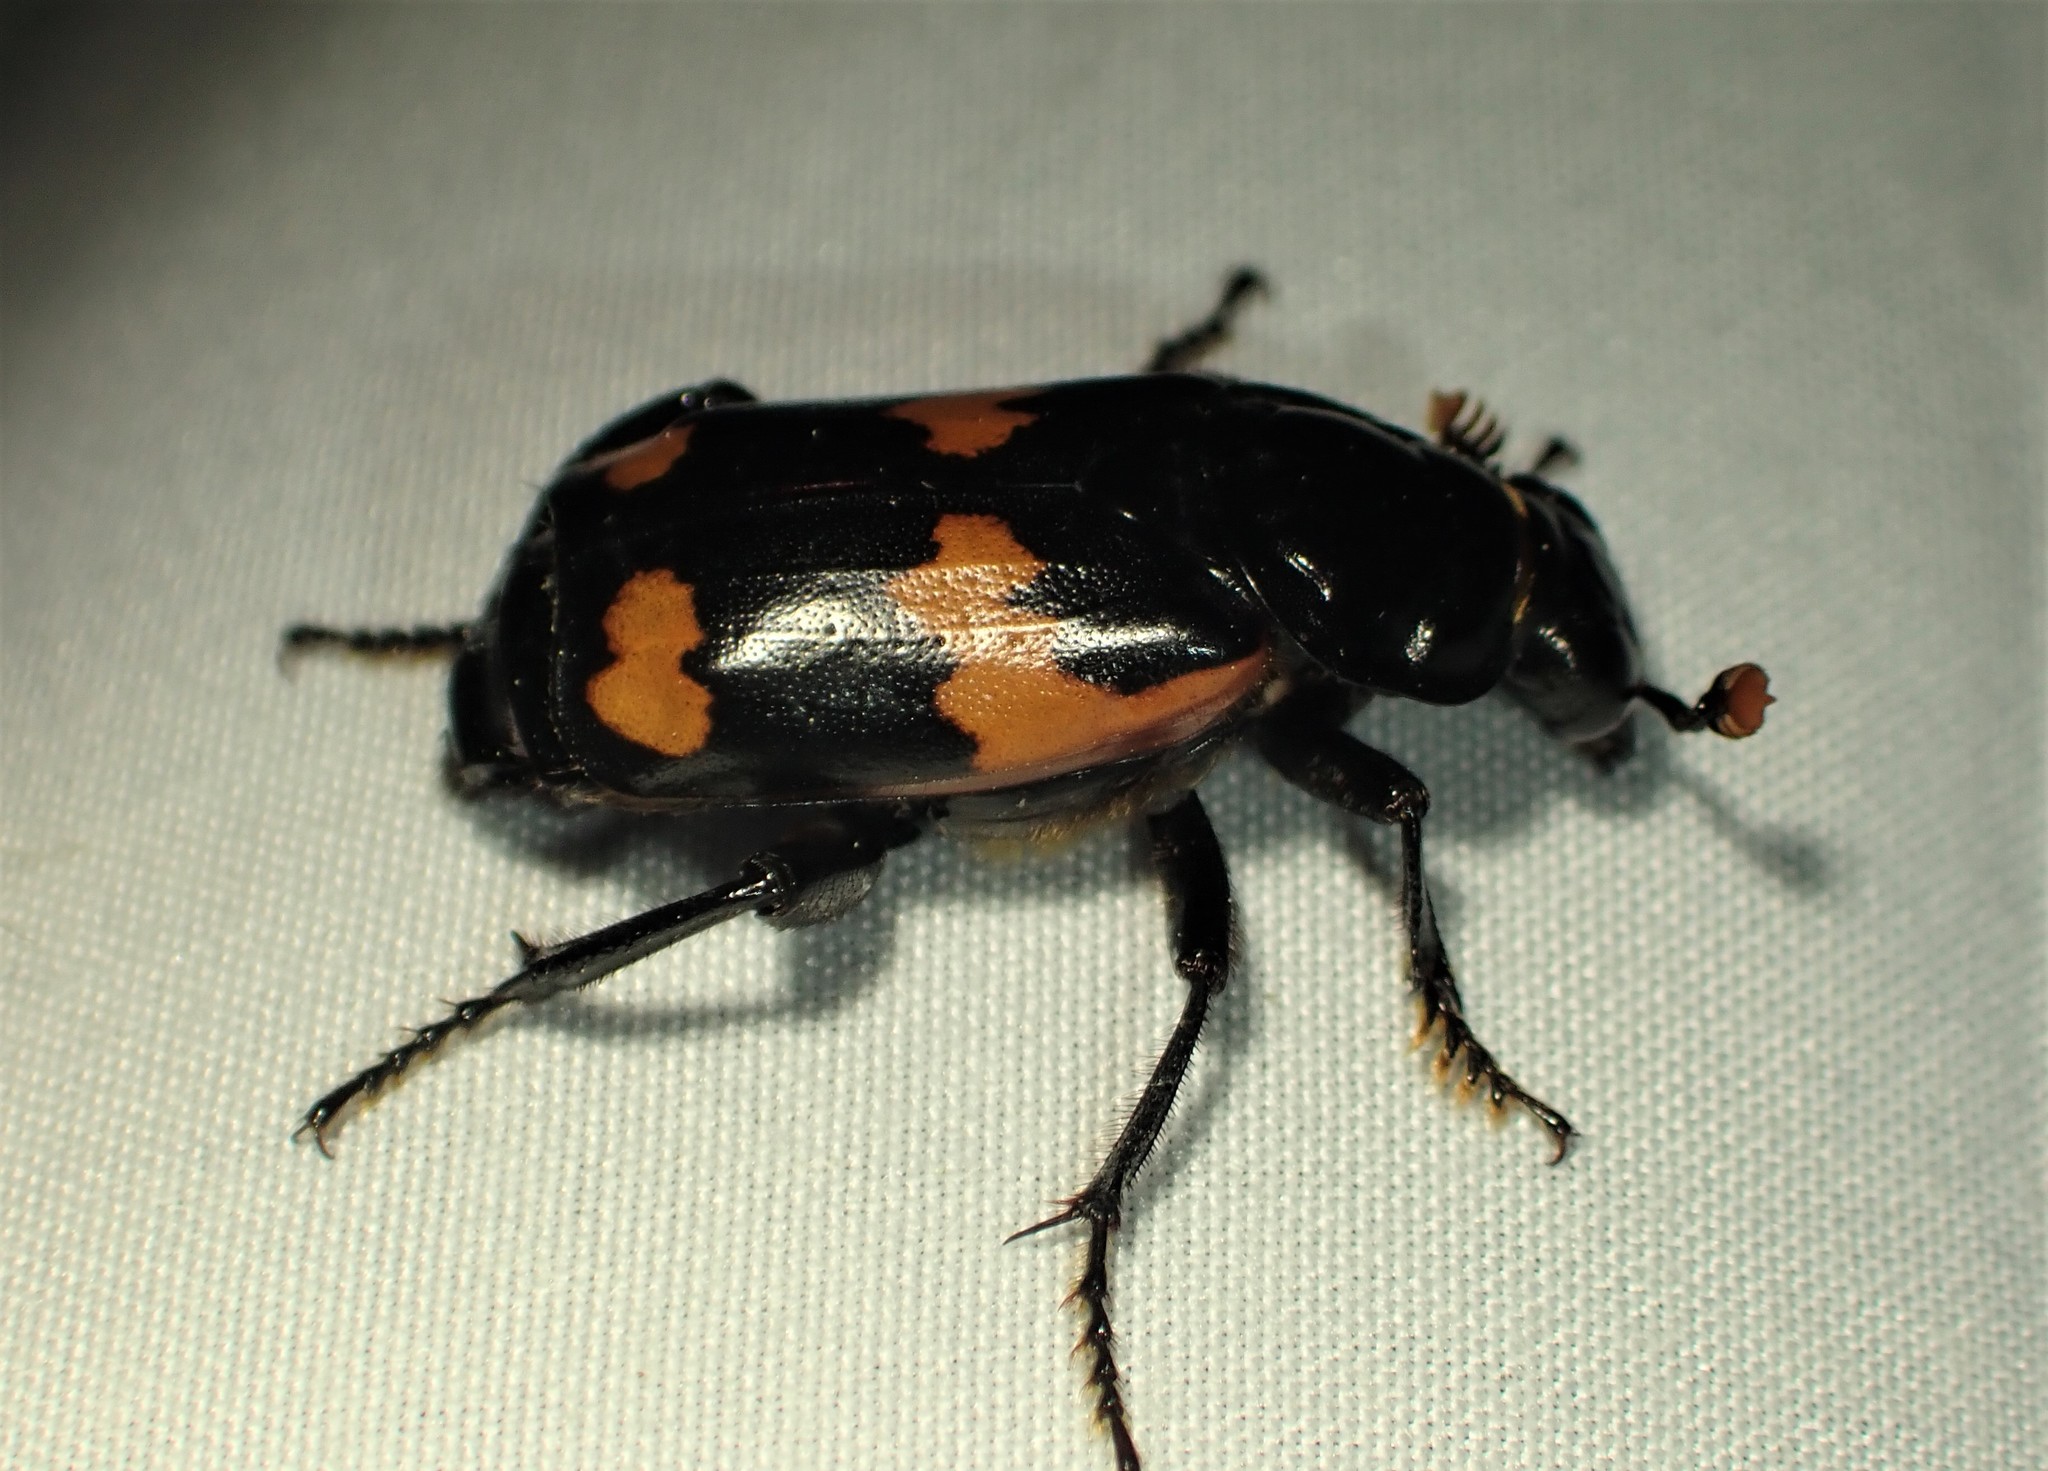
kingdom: Animalia
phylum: Arthropoda
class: Insecta
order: Coleoptera
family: Staphylinidae
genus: Nicrophorus
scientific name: Nicrophorus sayi
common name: Say's burying beetle
